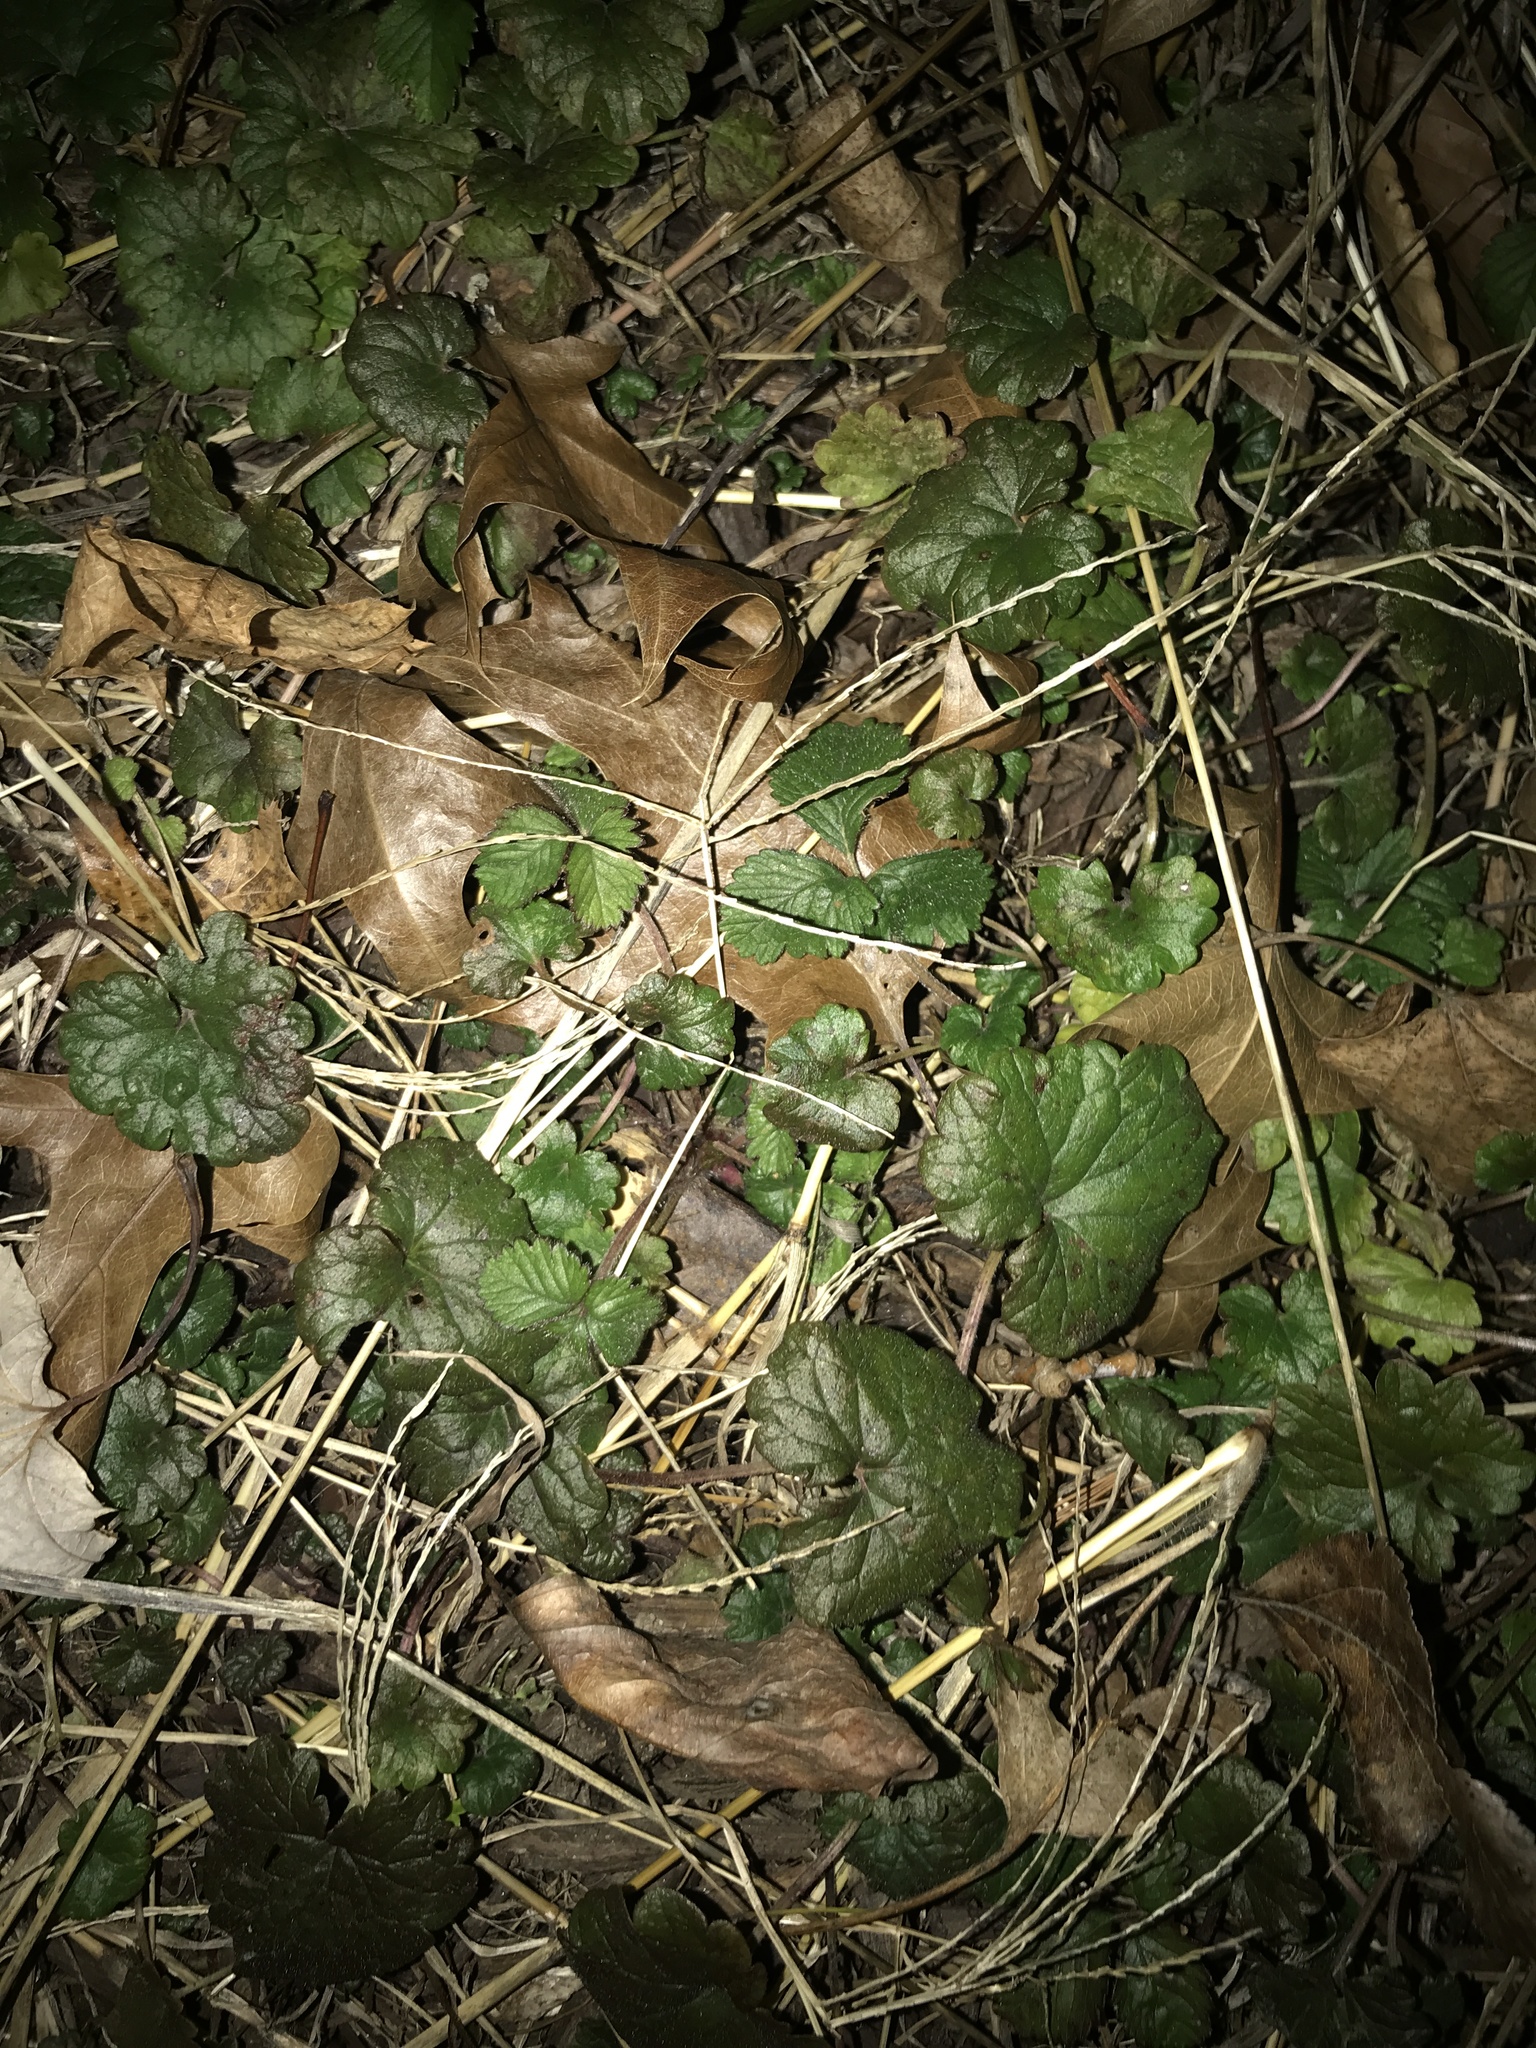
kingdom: Plantae
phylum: Tracheophyta
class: Magnoliopsida
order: Lamiales
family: Lamiaceae
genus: Glechoma
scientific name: Glechoma hederacea
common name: Ground ivy
